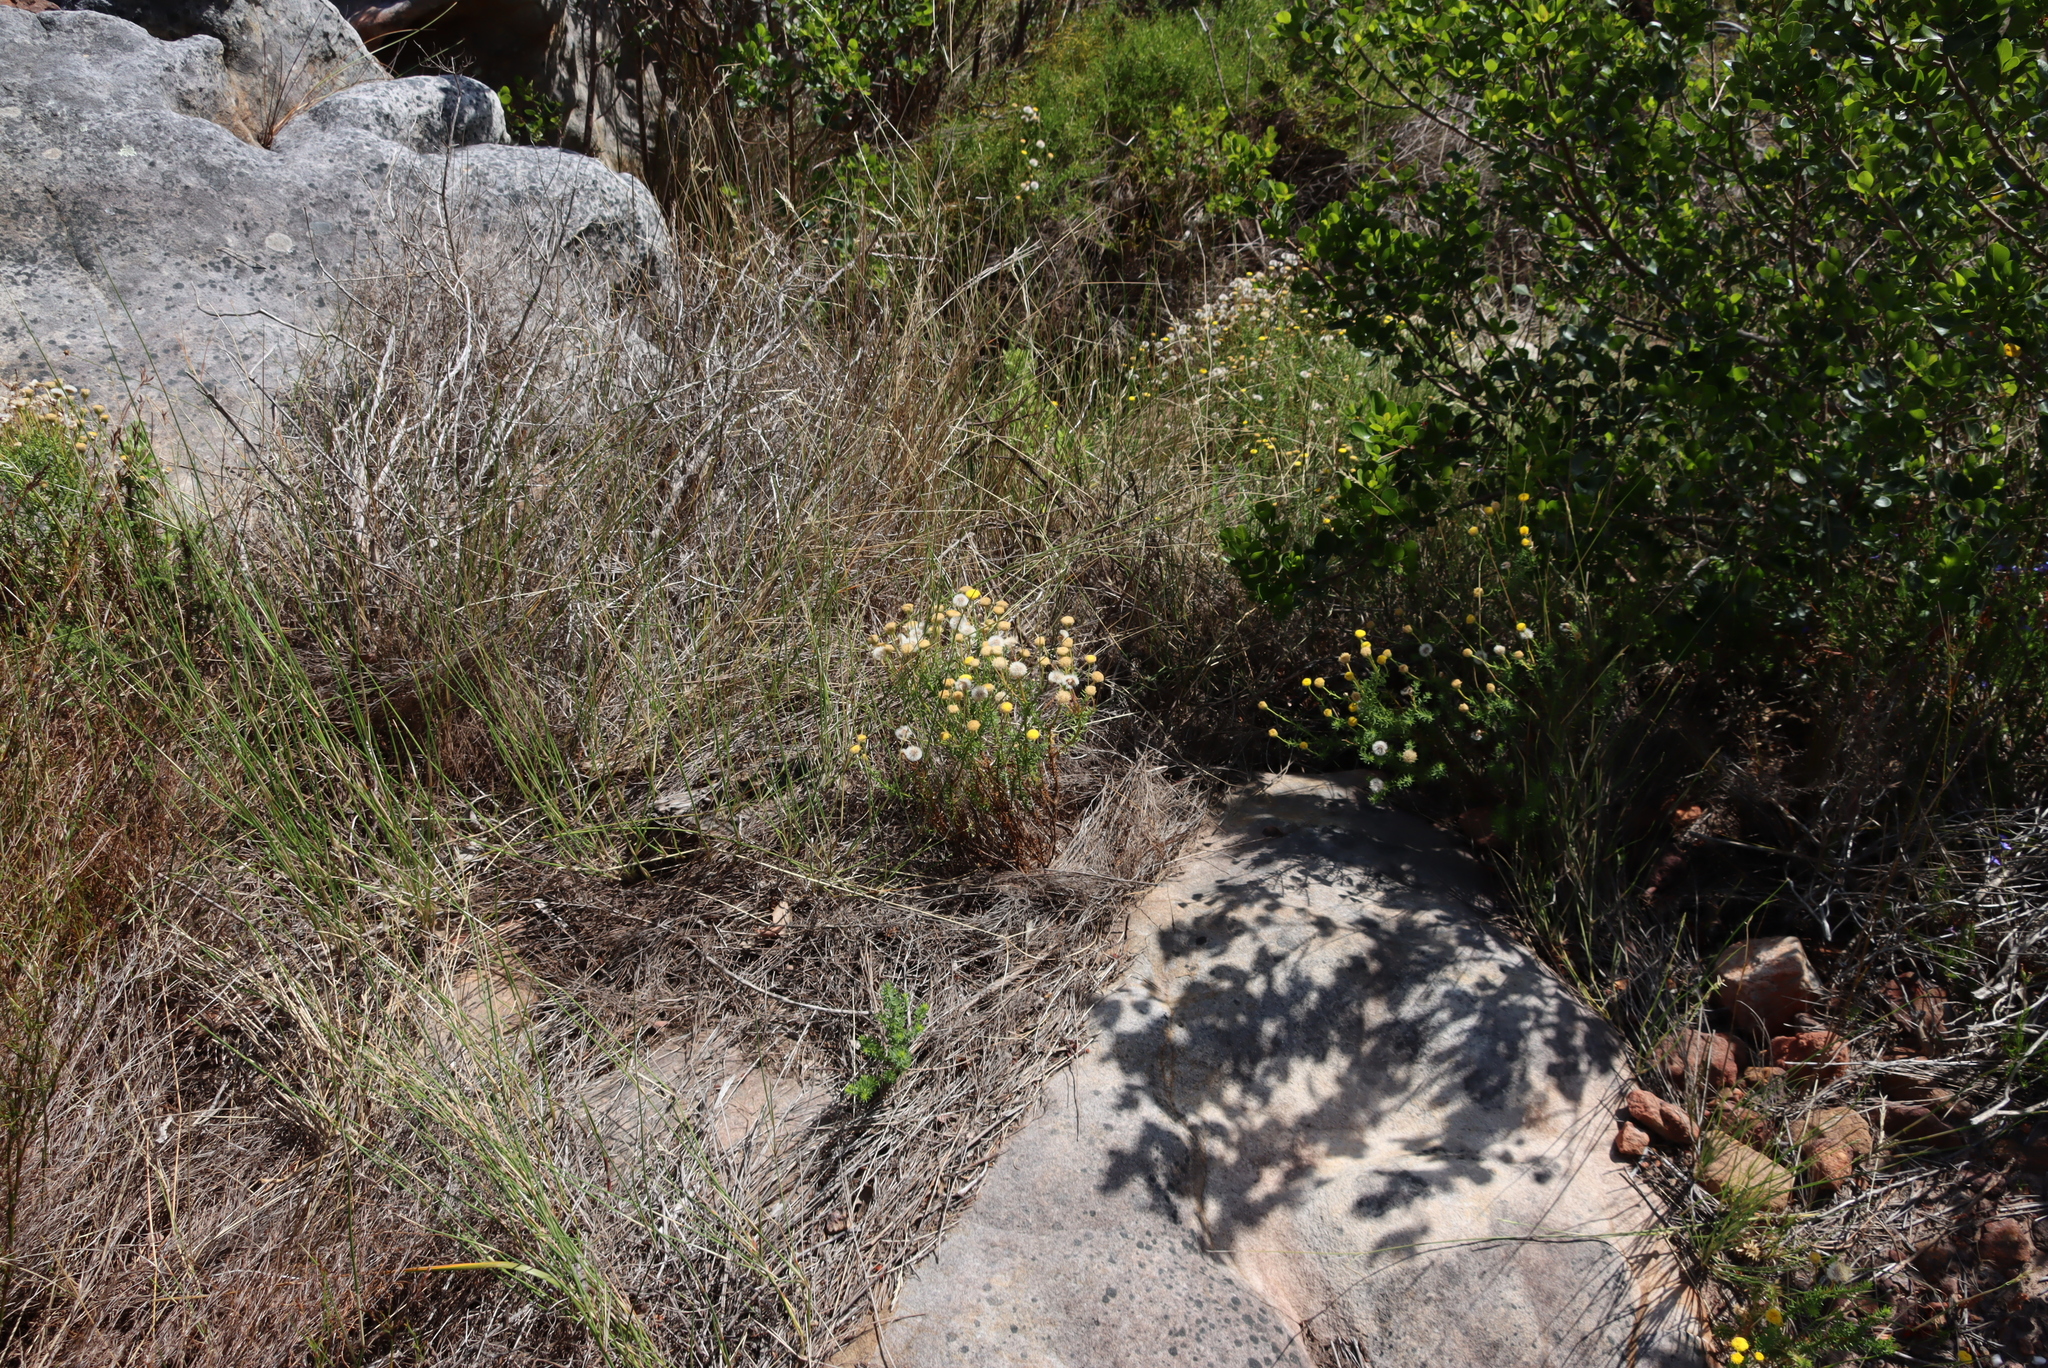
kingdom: Plantae
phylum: Tracheophyta
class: Magnoliopsida
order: Asterales
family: Asteraceae
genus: Chrysocoma
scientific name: Chrysocoma cernua
